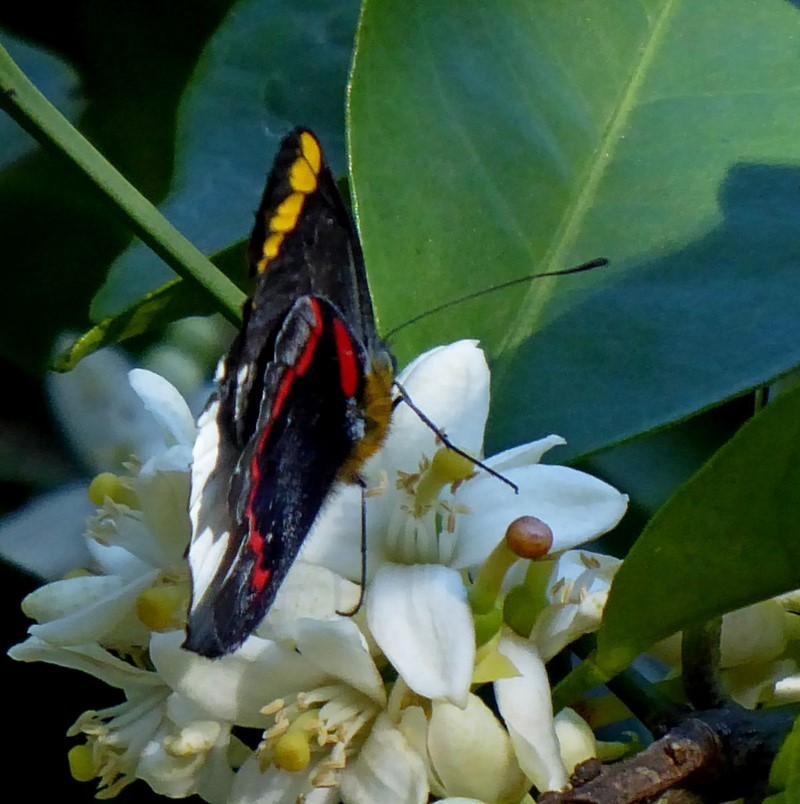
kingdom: Animalia
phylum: Arthropoda
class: Insecta
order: Lepidoptera
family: Pieridae
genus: Delias
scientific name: Delias nigrina
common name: Black jezebel
